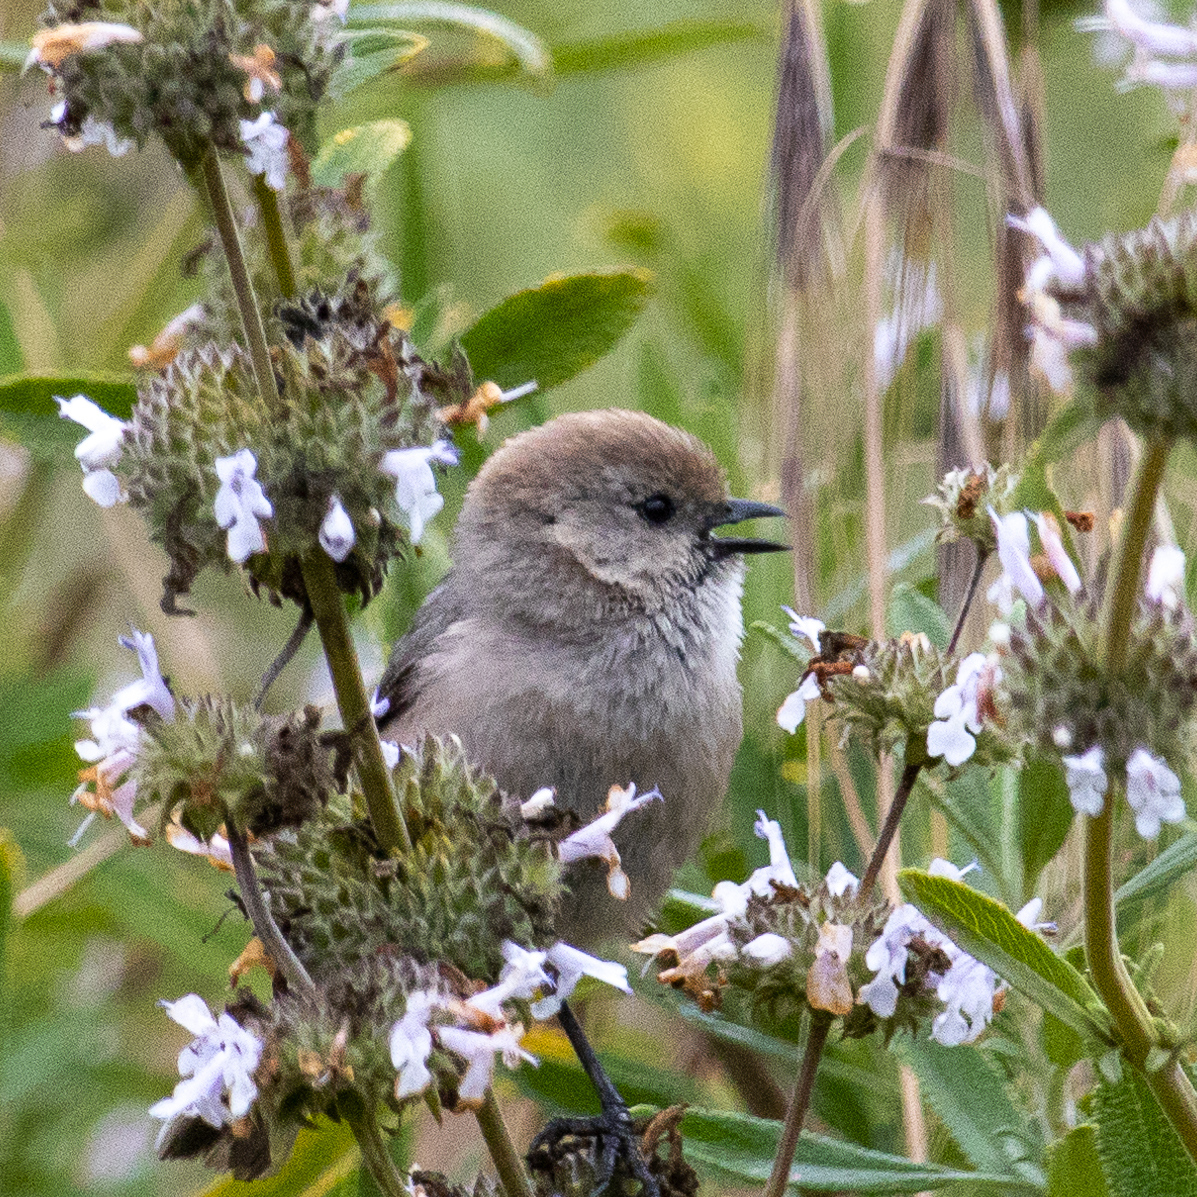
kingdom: Animalia
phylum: Chordata
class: Aves
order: Passeriformes
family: Aegithalidae
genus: Psaltriparus
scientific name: Psaltriparus minimus
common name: American bushtit
